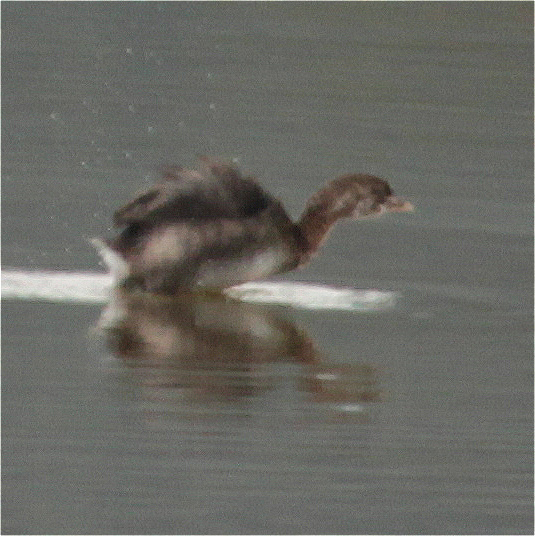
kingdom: Animalia
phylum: Chordata
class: Aves
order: Podicipediformes
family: Podicipedidae
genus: Podilymbus
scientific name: Podilymbus podiceps
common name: Pied-billed grebe
